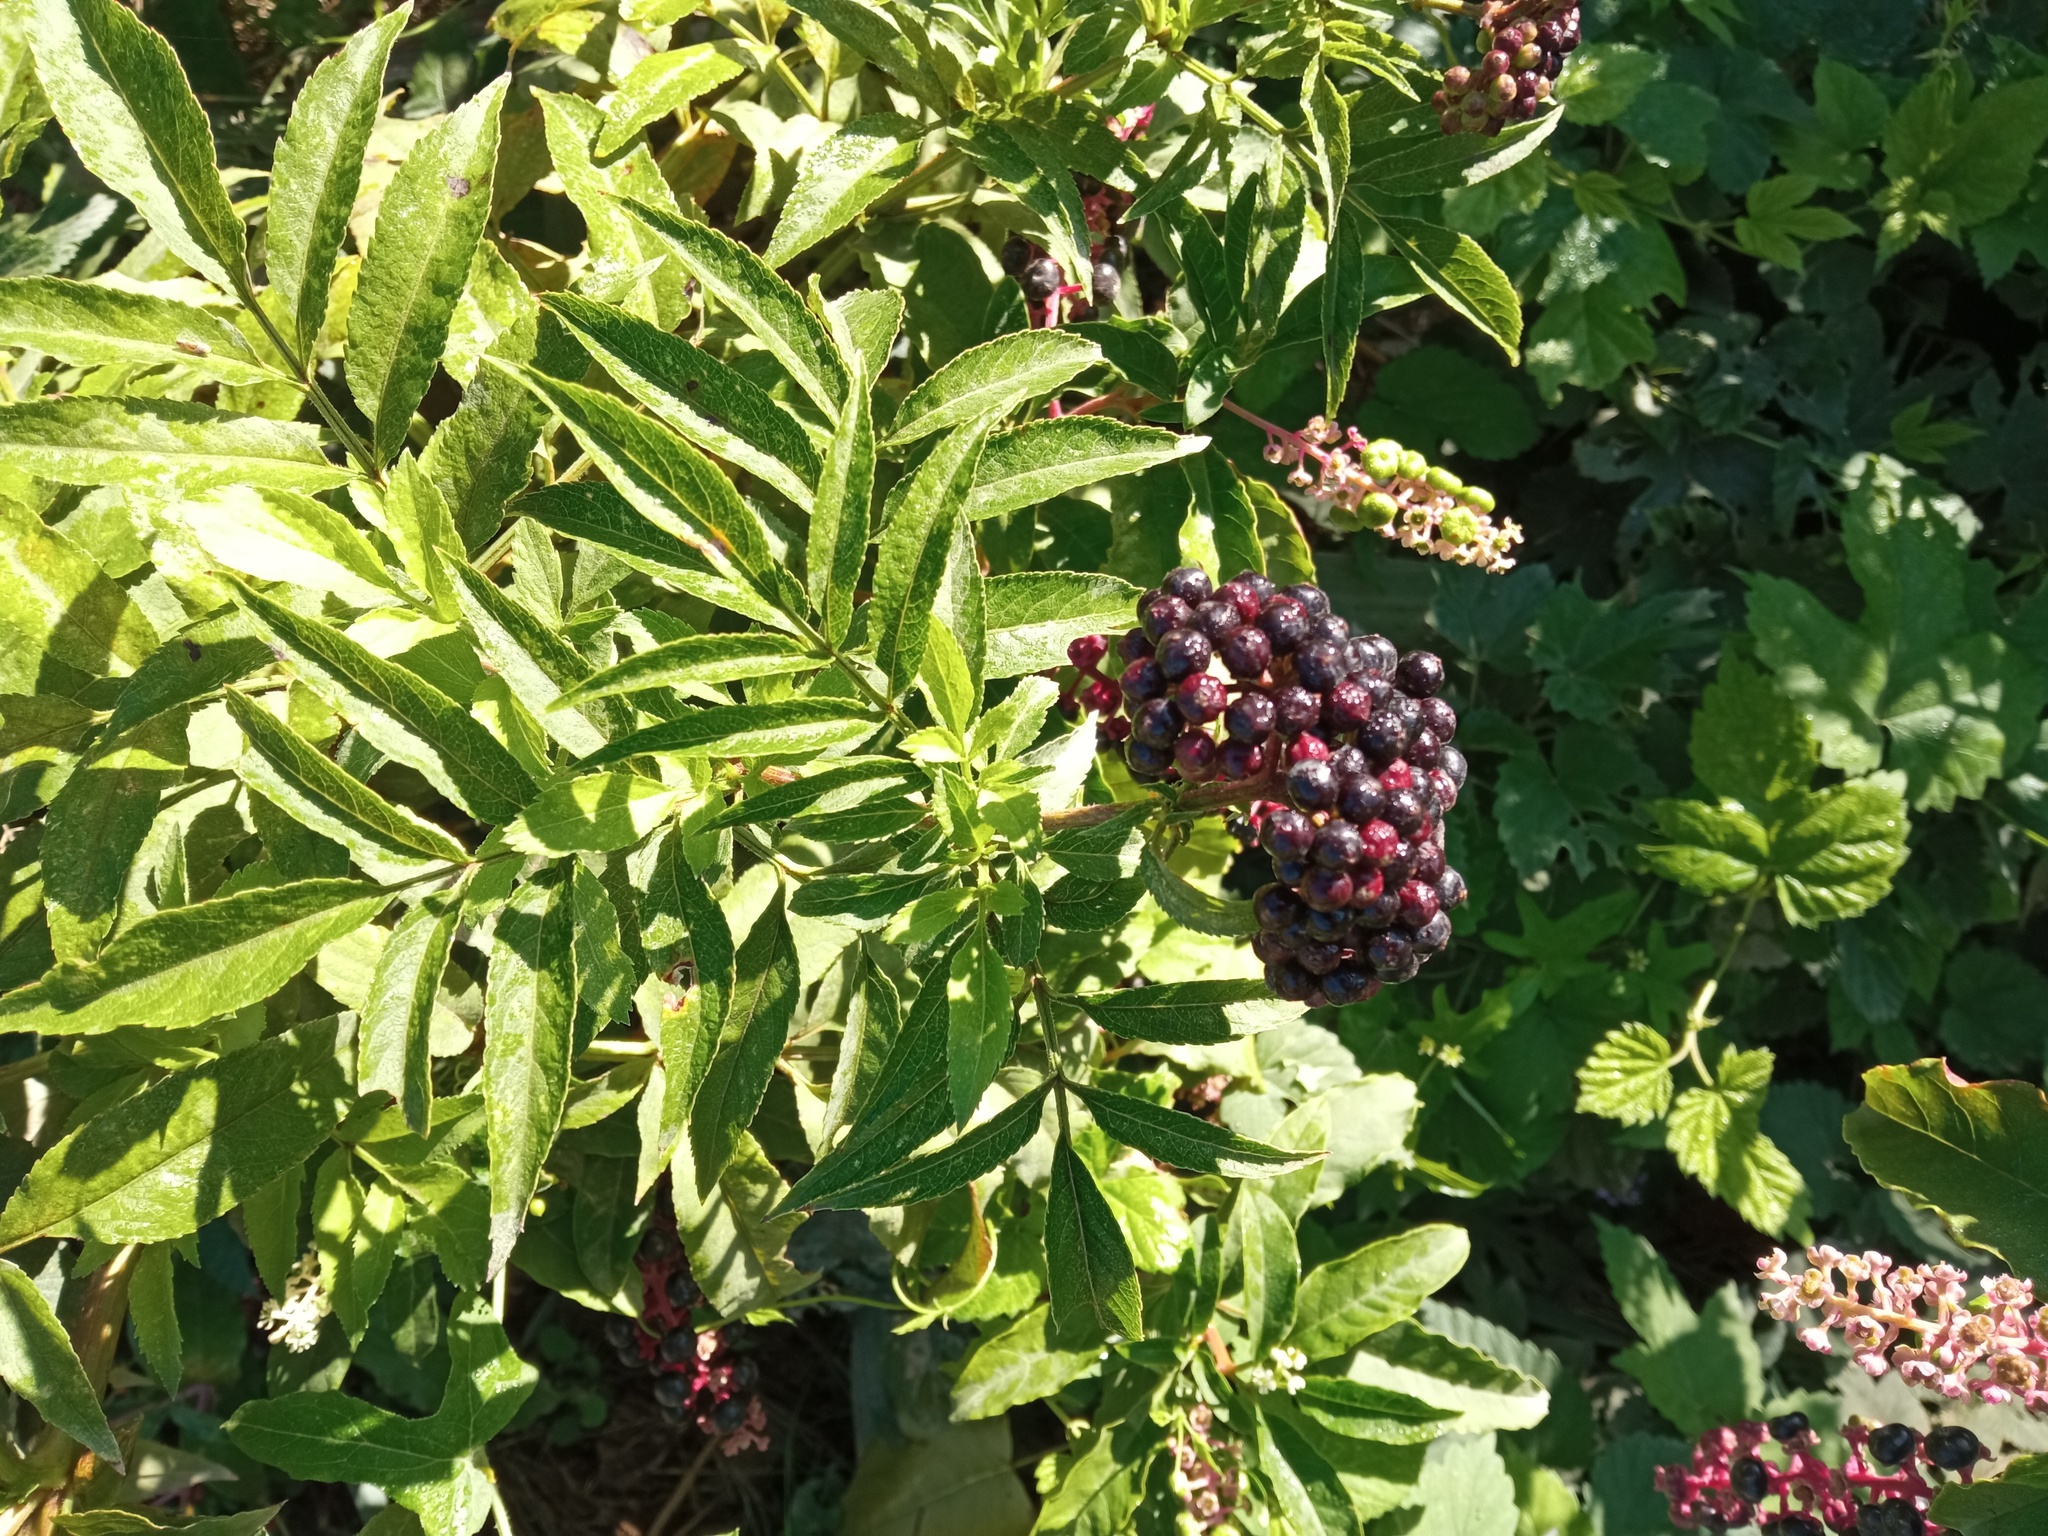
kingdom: Plantae
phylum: Tracheophyta
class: Magnoliopsida
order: Dipsacales
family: Viburnaceae
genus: Sambucus
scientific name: Sambucus ebulus
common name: Dwarf elder
